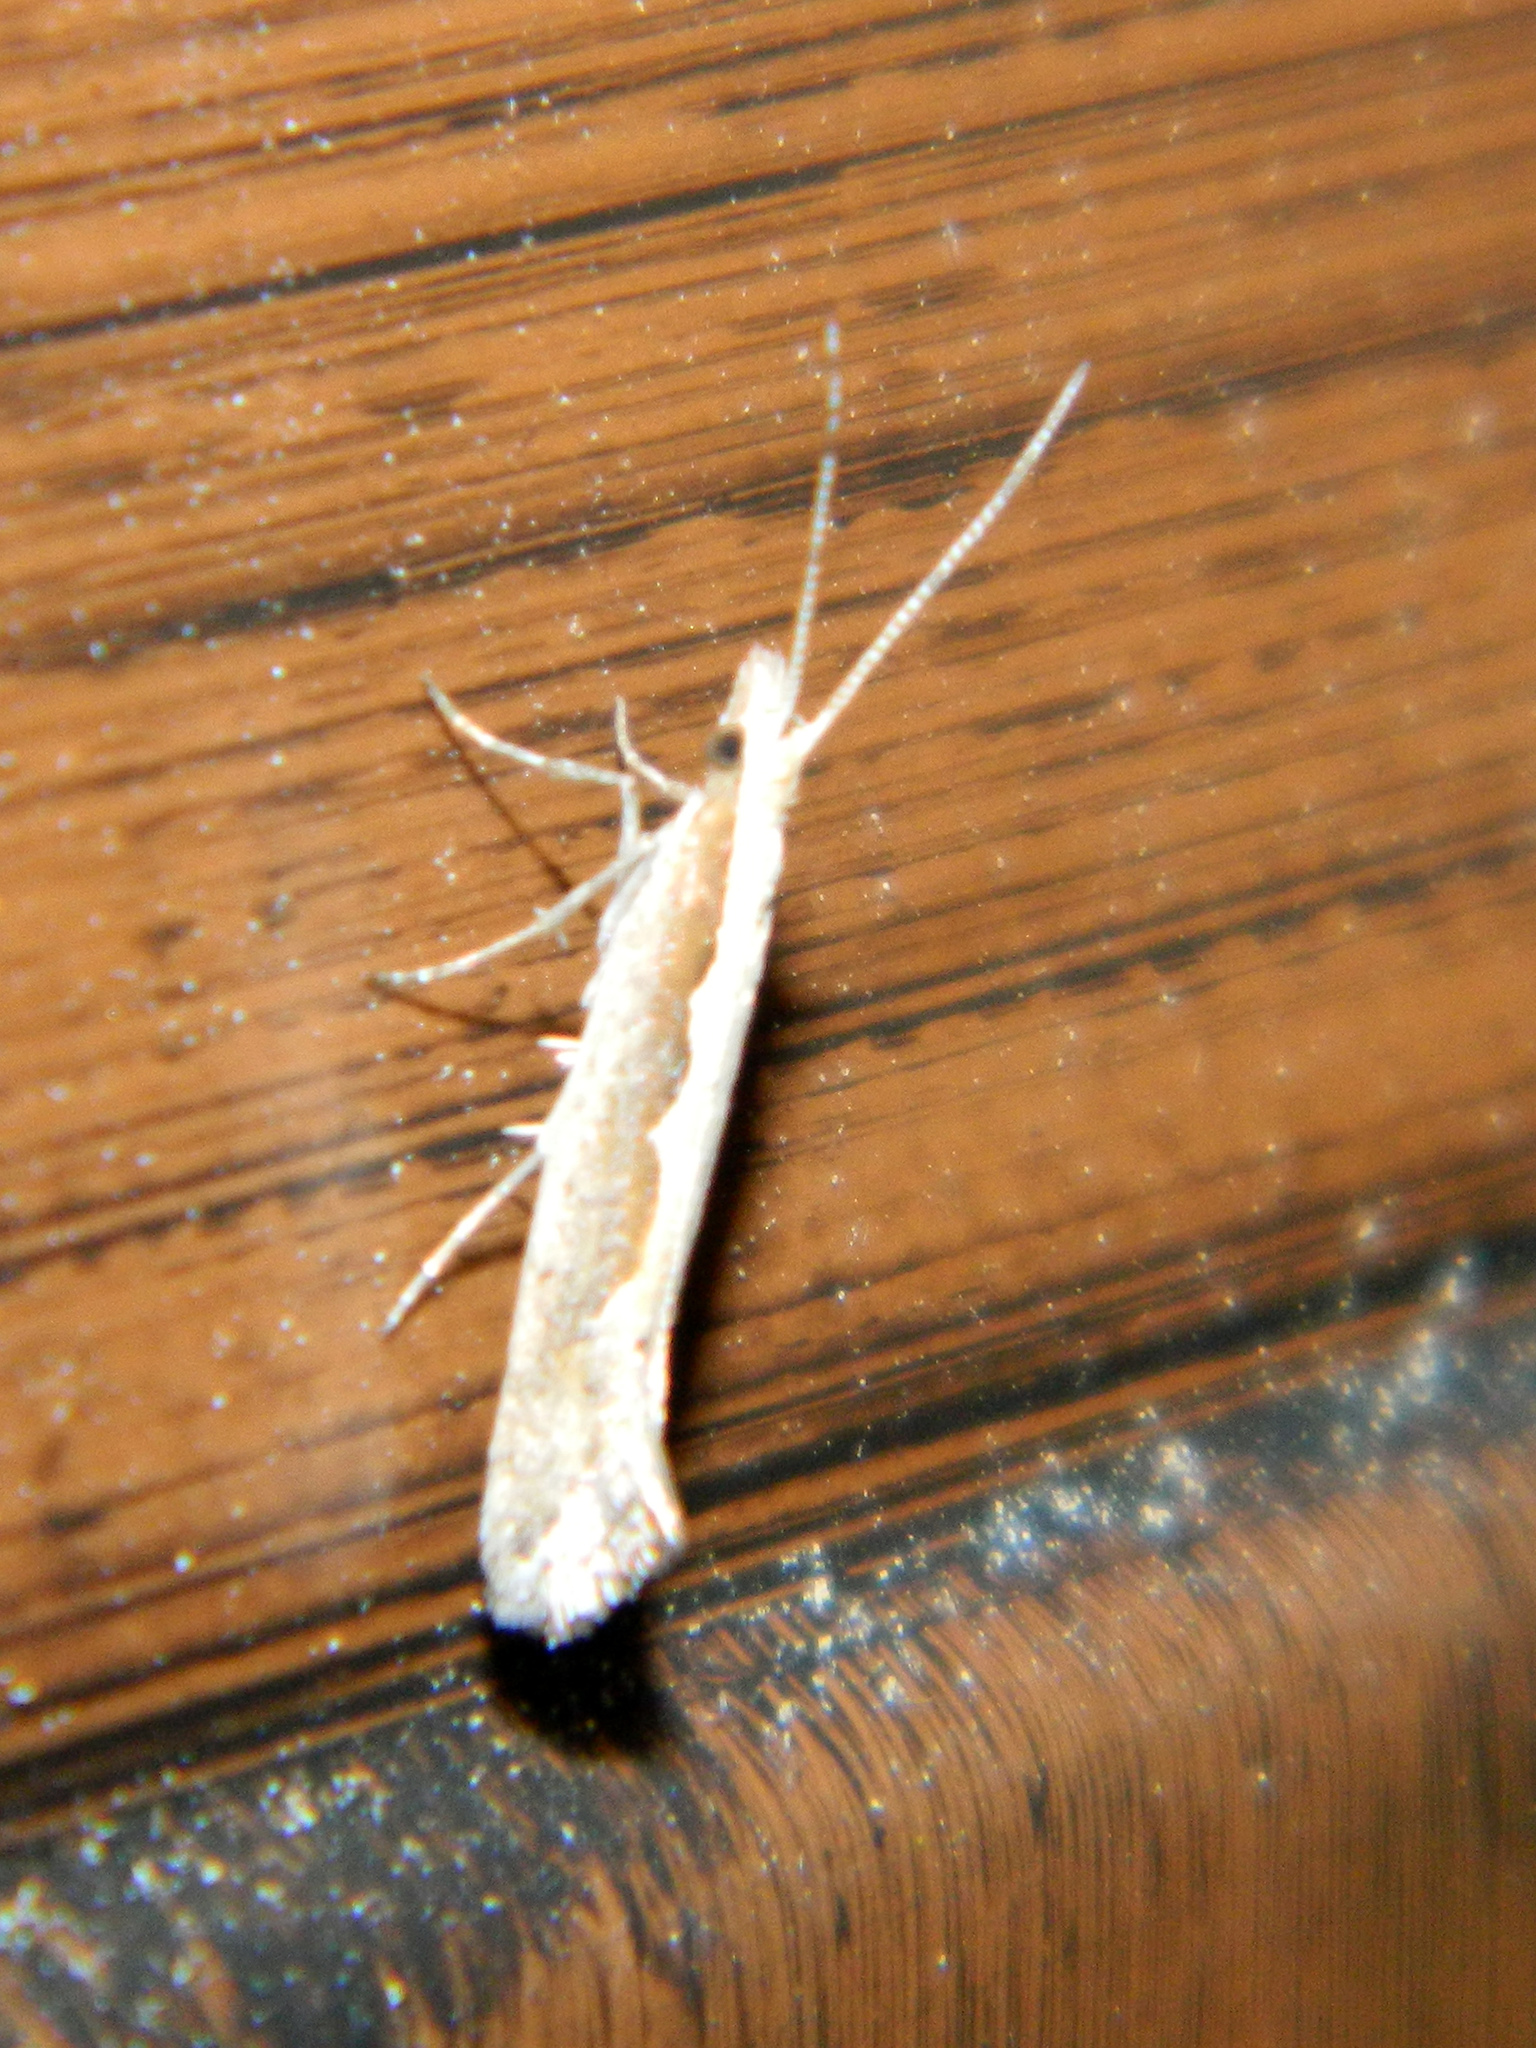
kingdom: Animalia
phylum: Arthropoda
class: Insecta
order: Lepidoptera
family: Plutellidae
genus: Plutella
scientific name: Plutella xylostella
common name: Diamond-back moth
